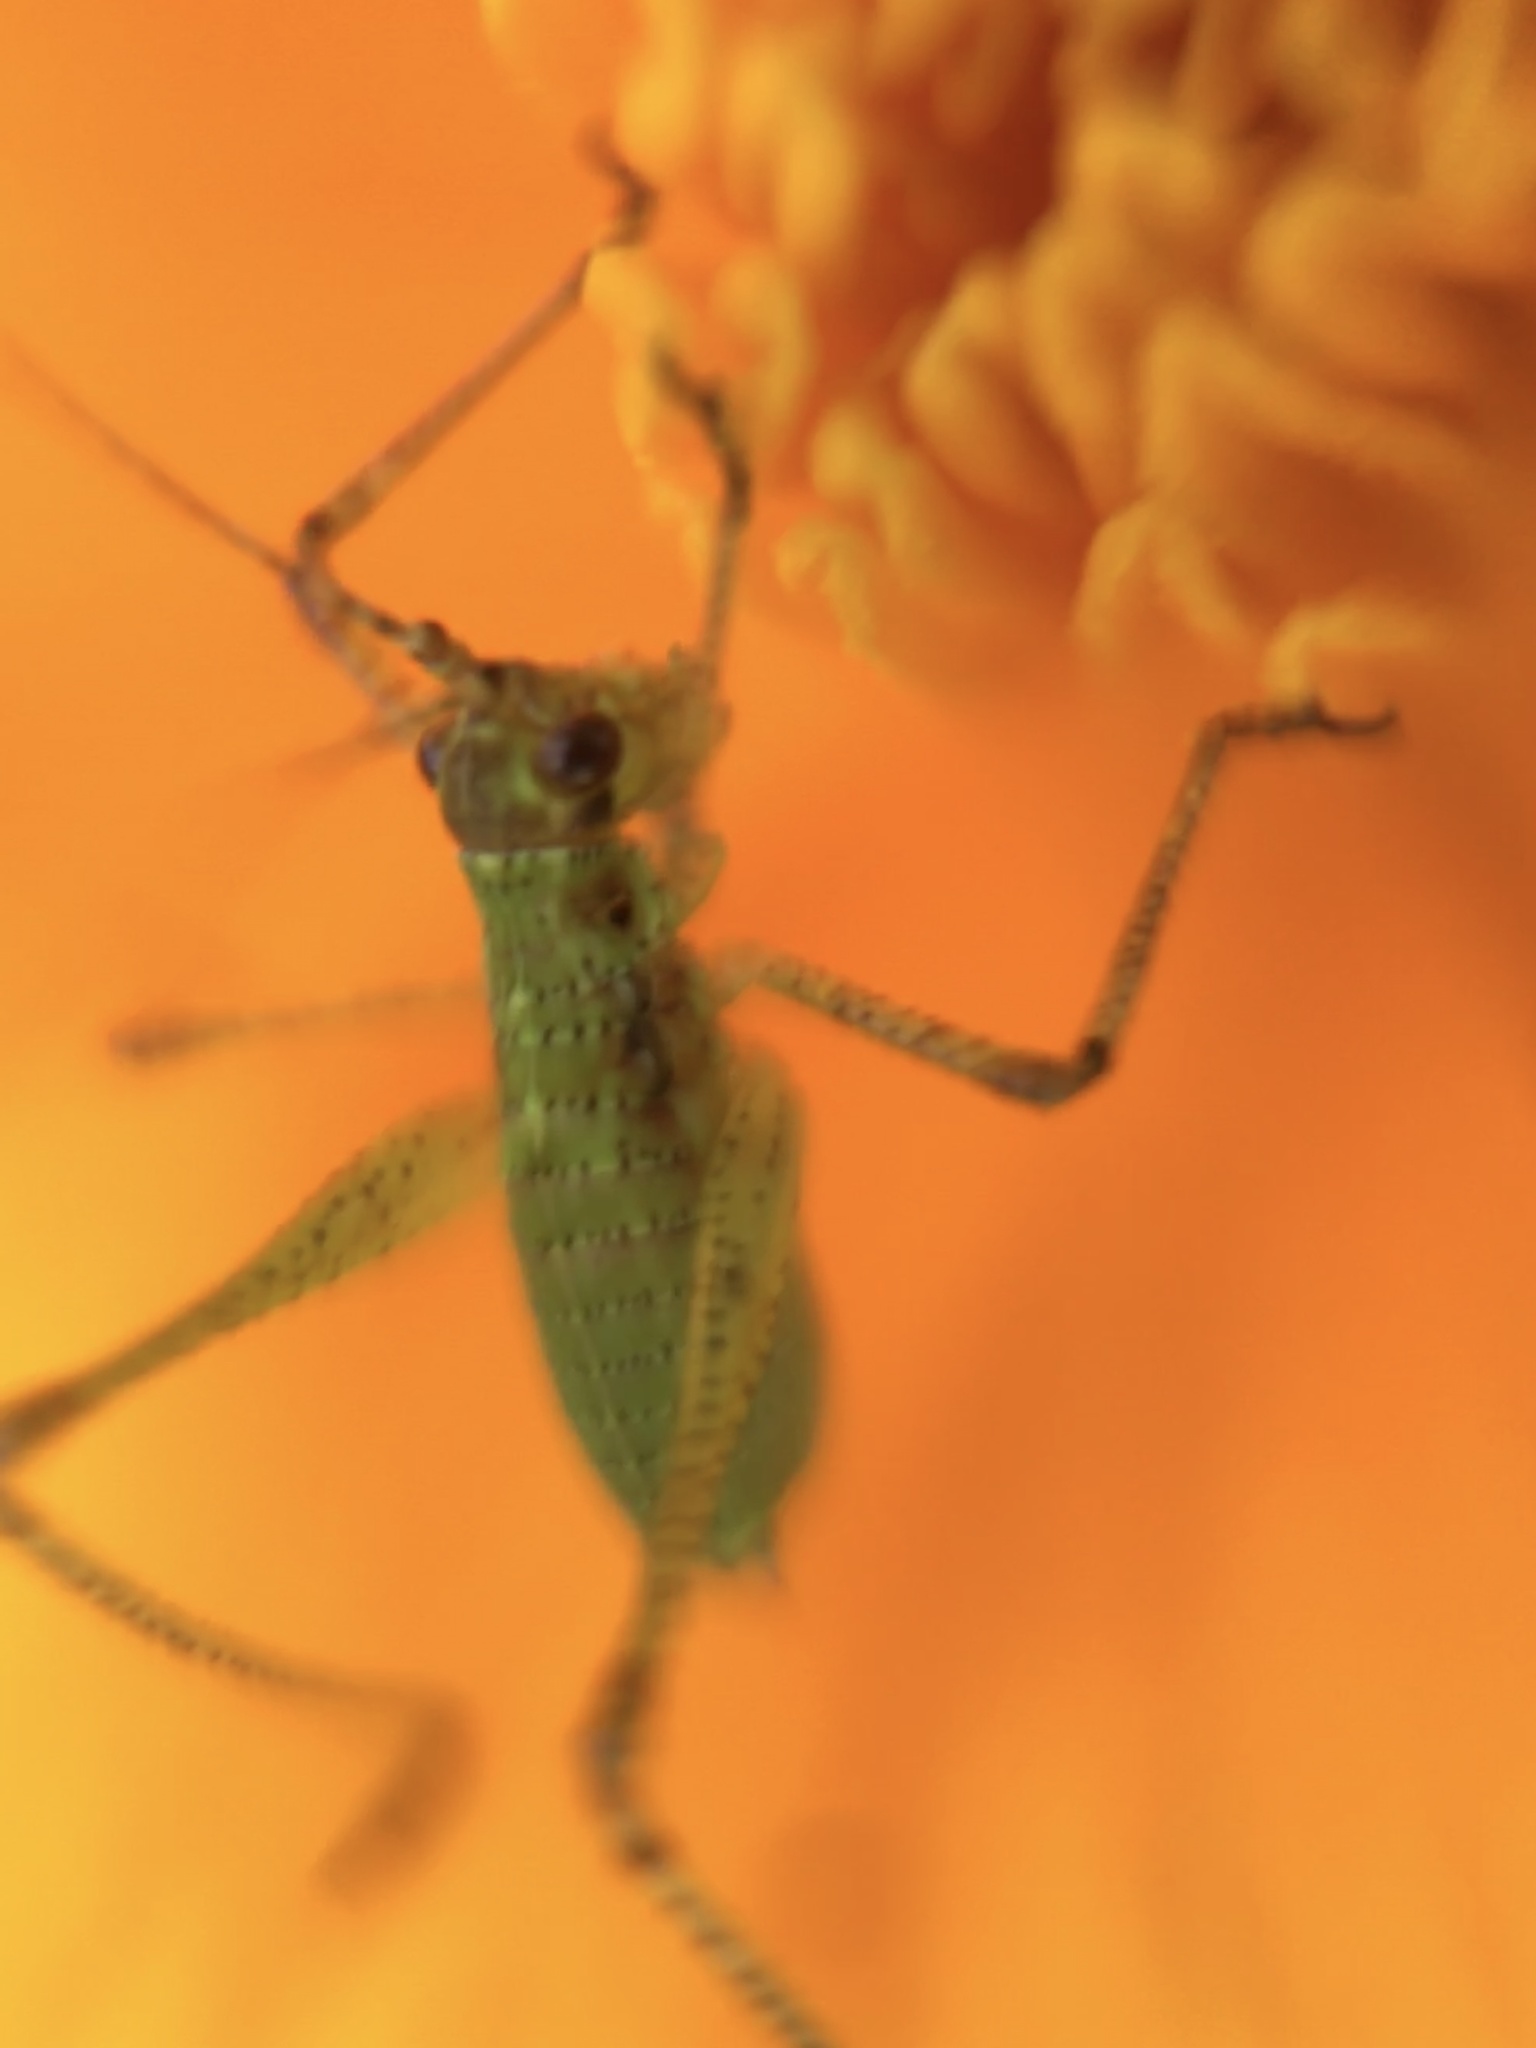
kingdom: Animalia
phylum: Arthropoda
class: Insecta
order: Orthoptera
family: Tettigoniidae
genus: Phaneroptera
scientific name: Phaneroptera nana
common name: Southern sickle bush-cricket
